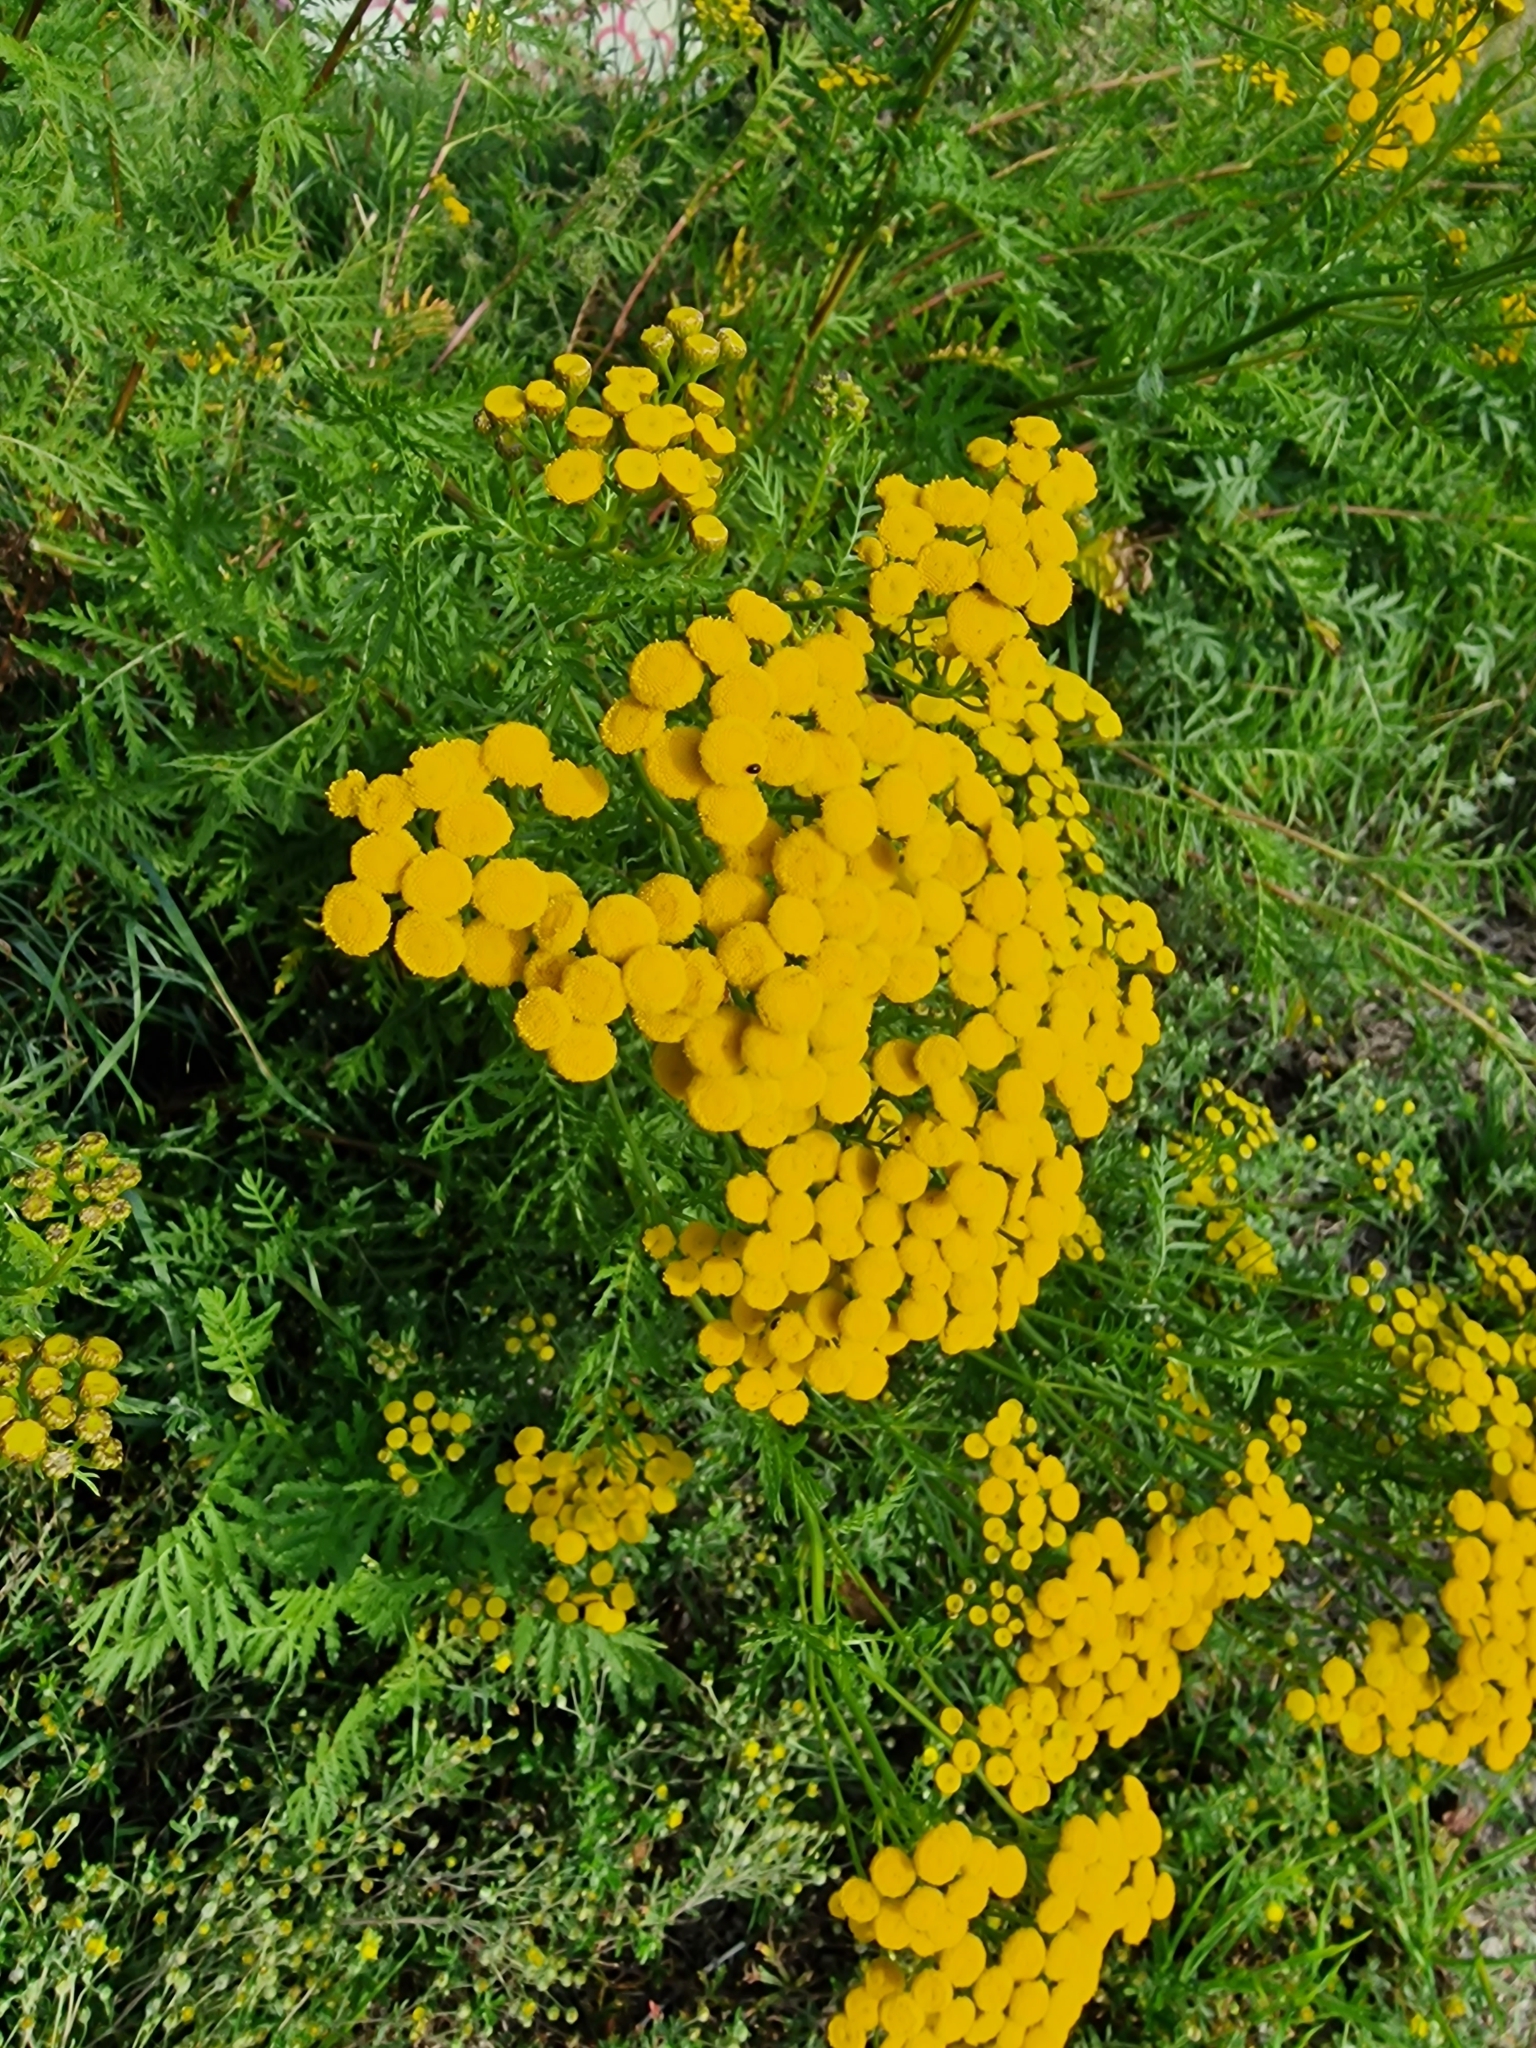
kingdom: Plantae
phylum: Tracheophyta
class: Magnoliopsida
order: Asterales
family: Asteraceae
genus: Tanacetum
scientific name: Tanacetum vulgare
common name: Common tansy
